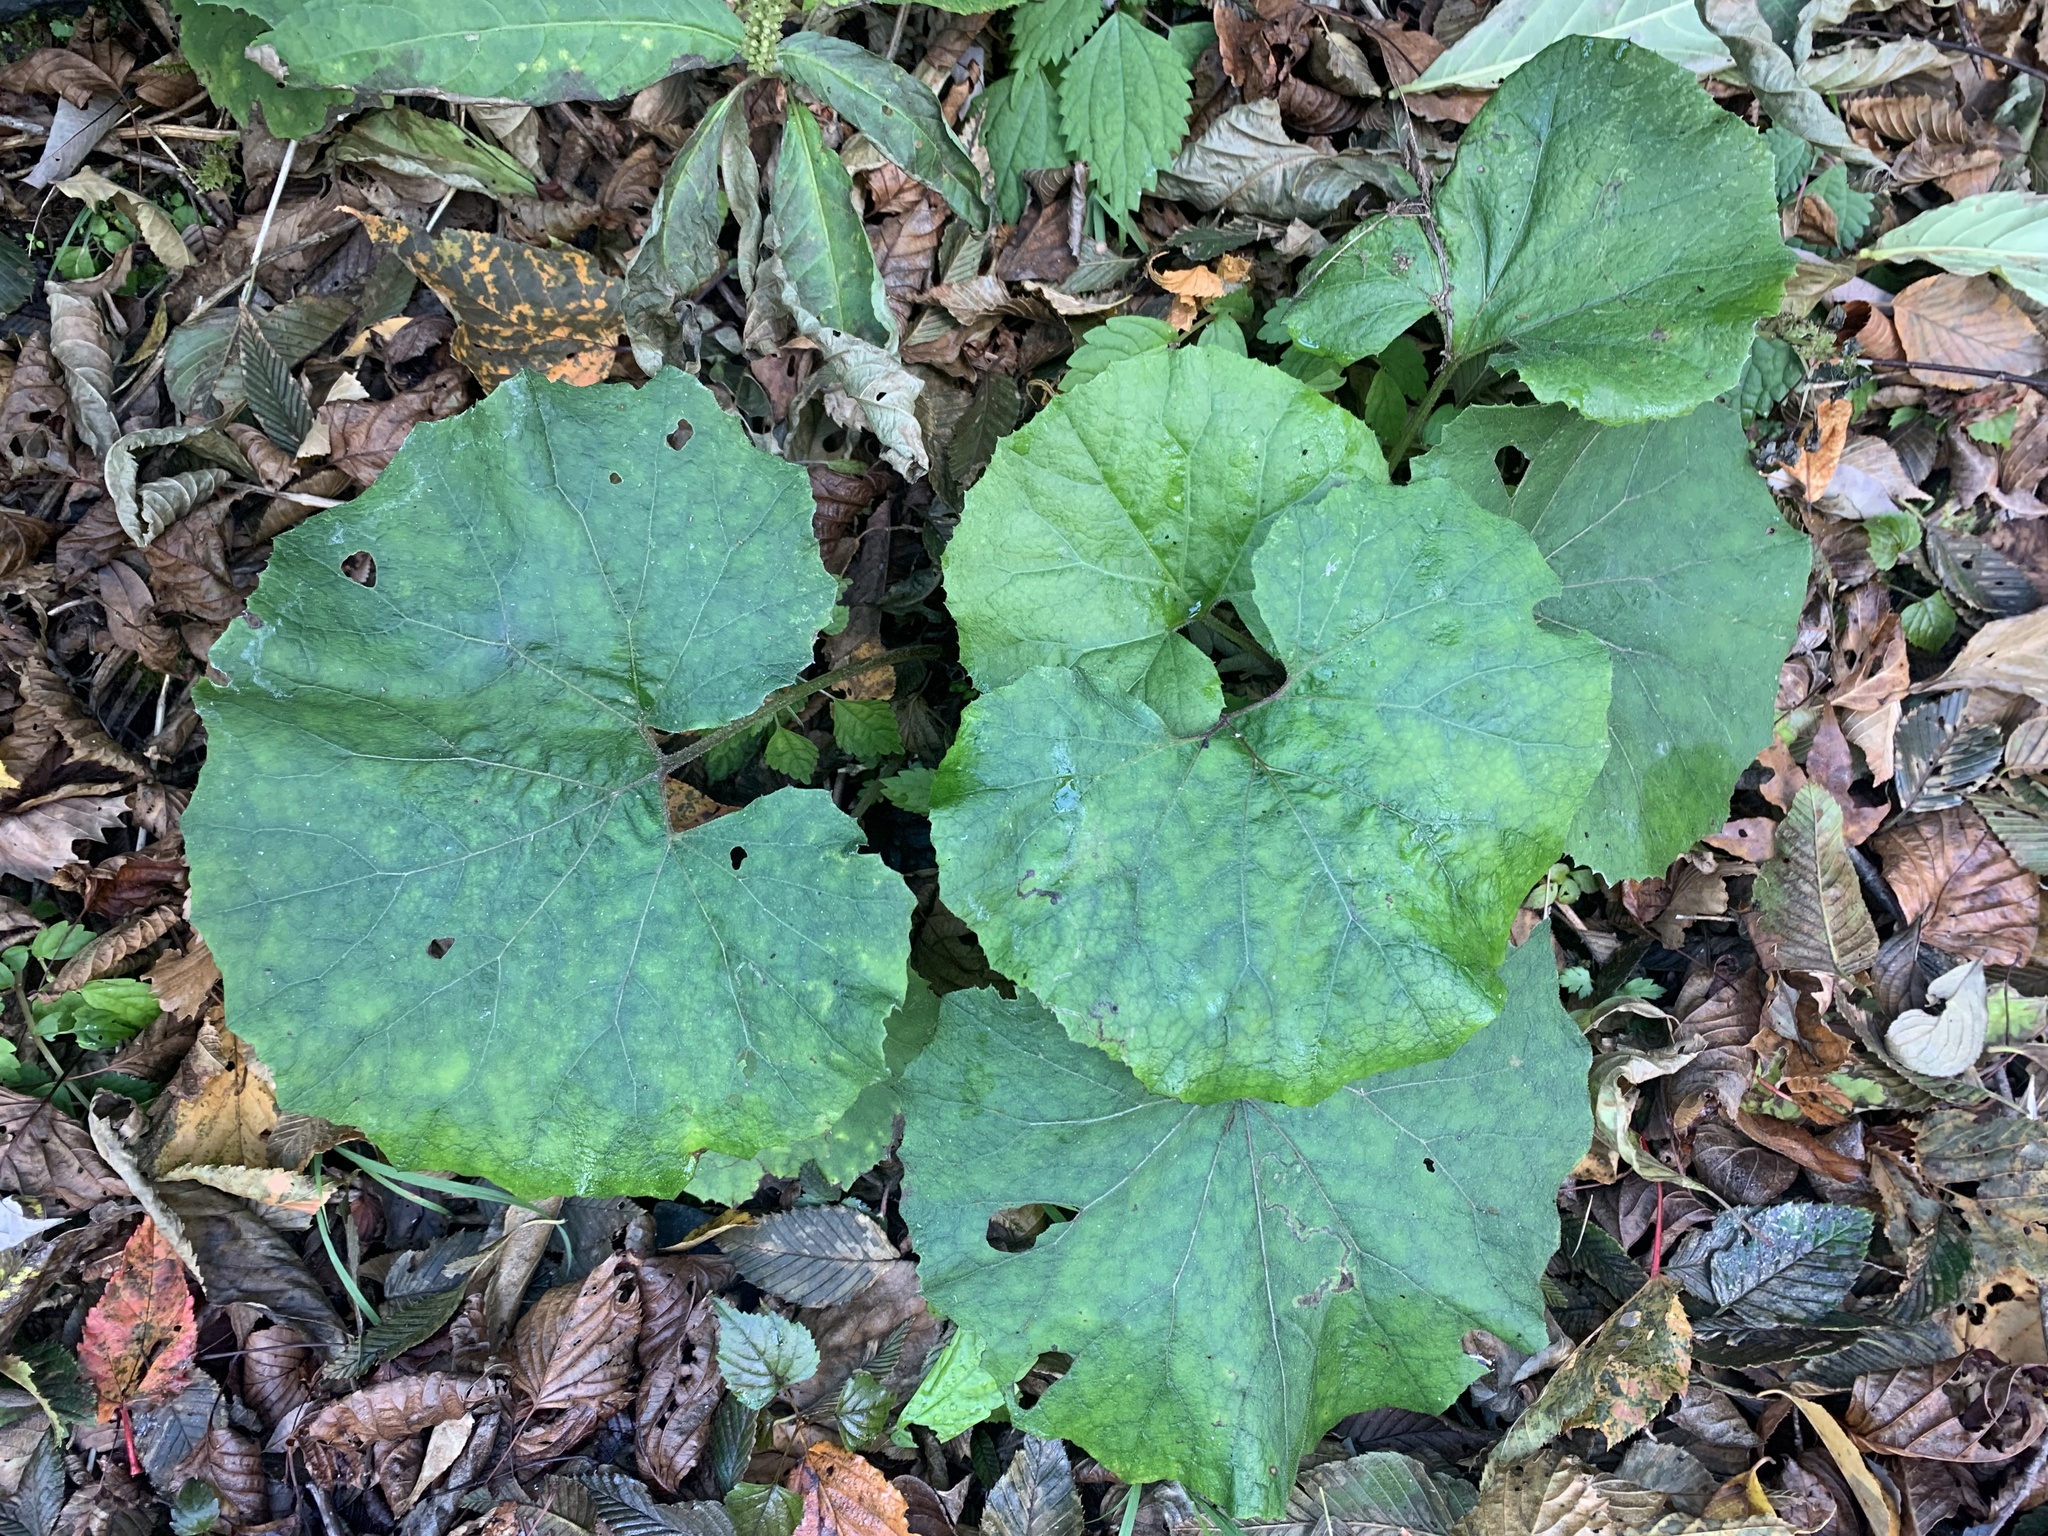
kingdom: Plantae
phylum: Tracheophyta
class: Magnoliopsida
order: Asterales
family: Asteraceae
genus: Petasites
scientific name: Petasites japonicus
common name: Giant butterbur
